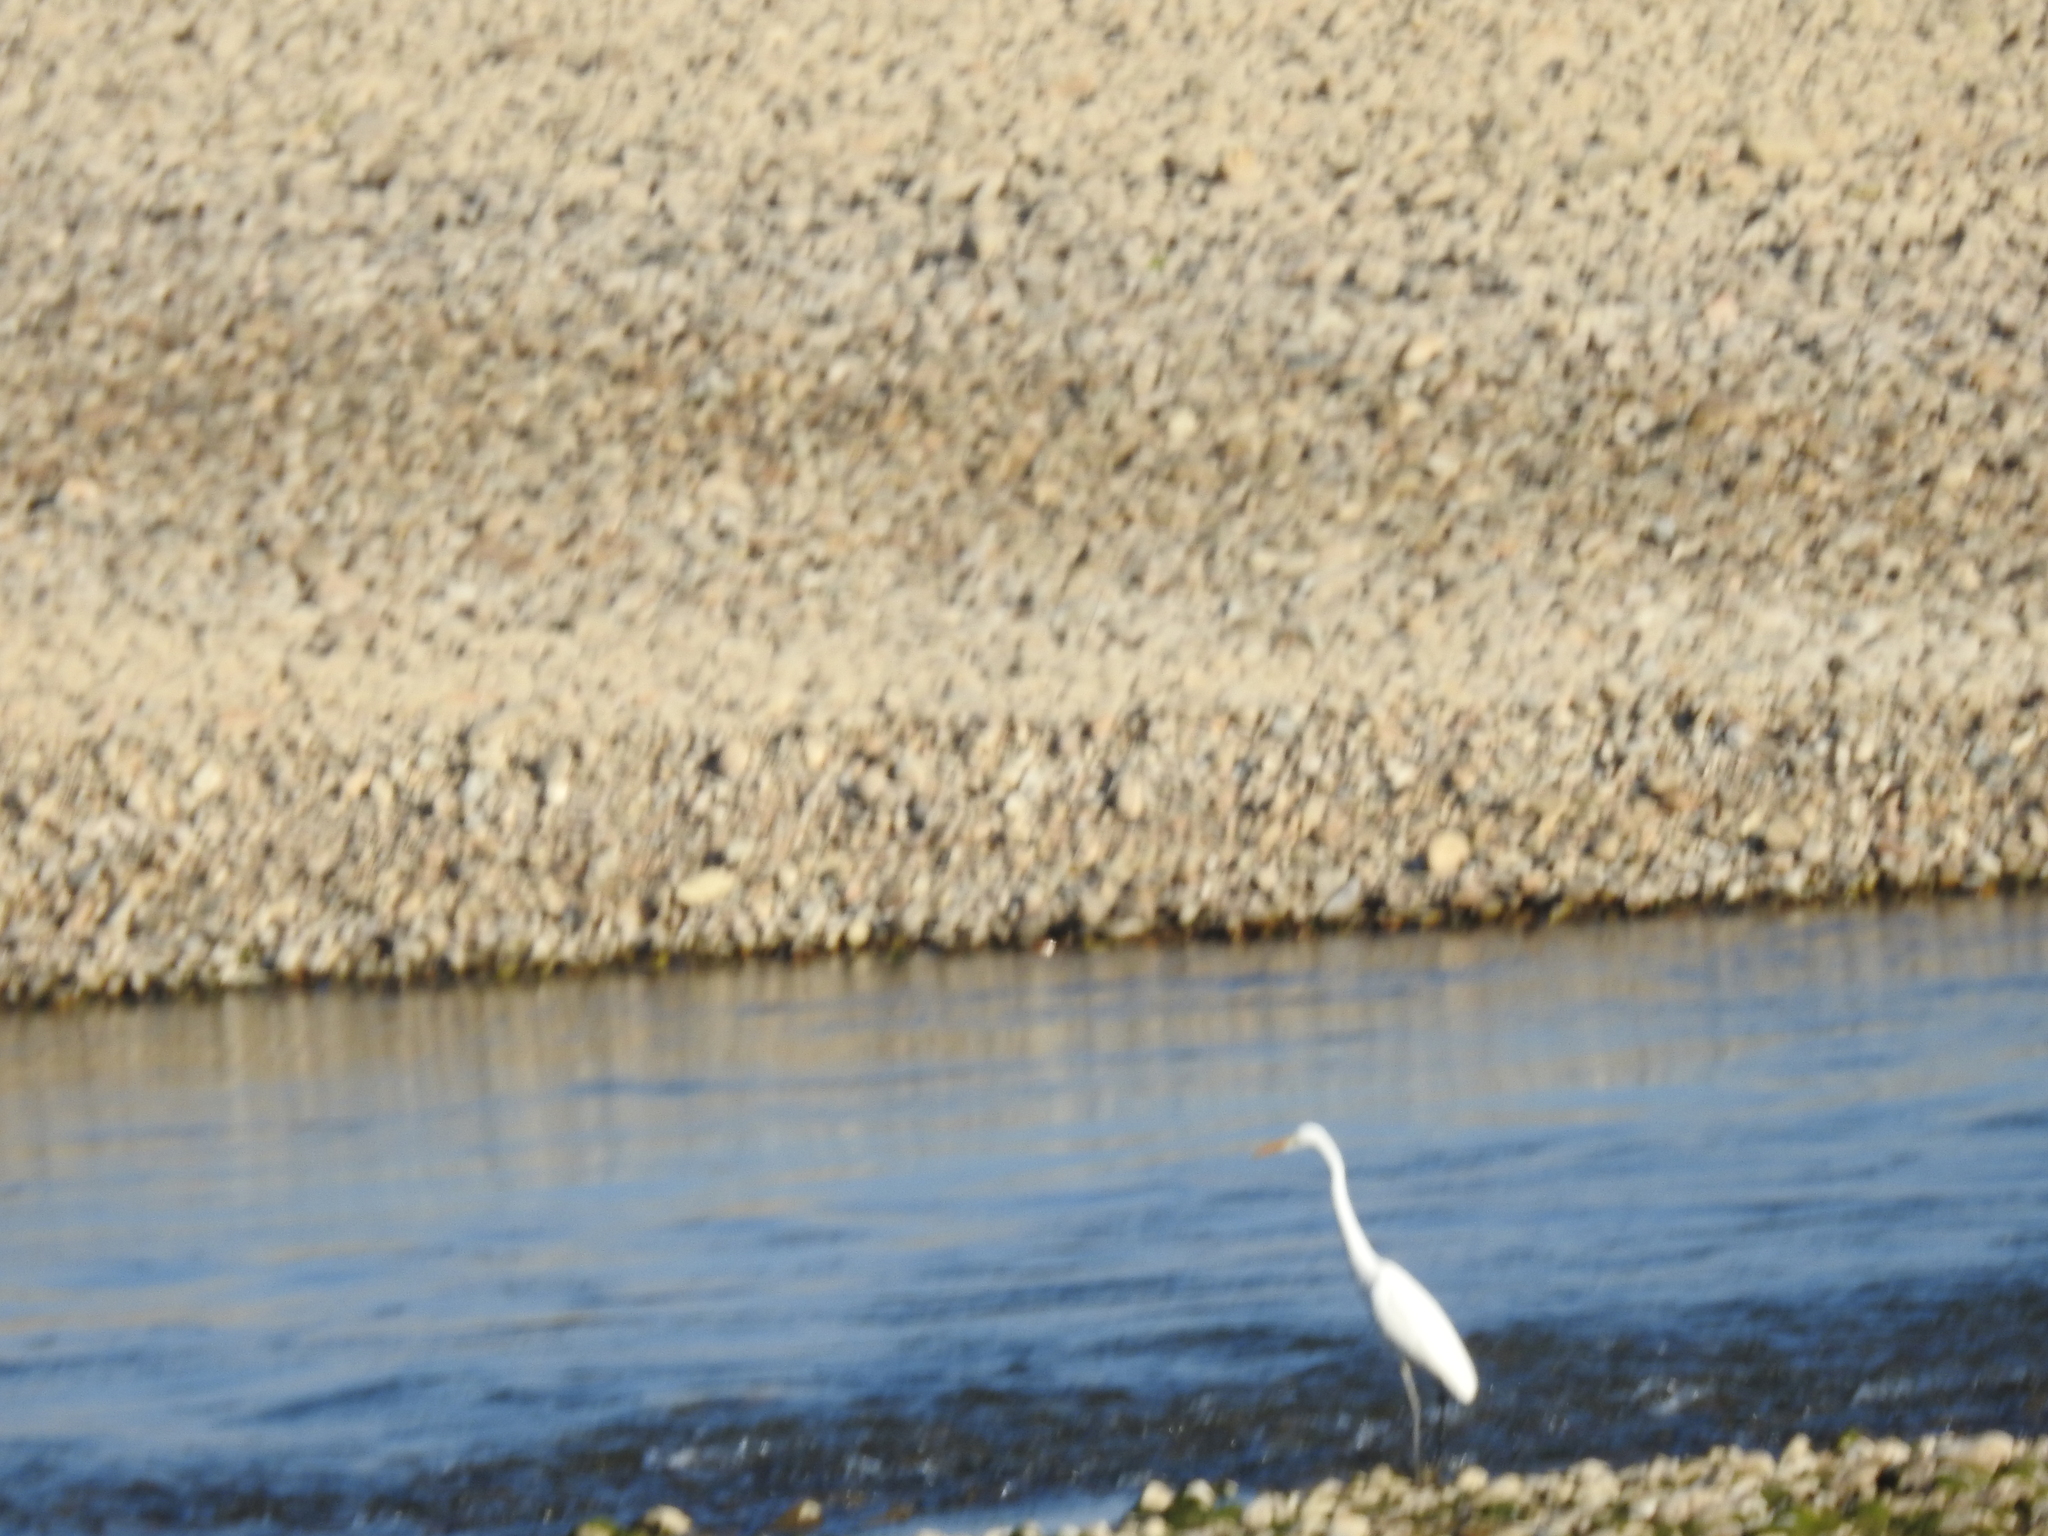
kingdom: Animalia
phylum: Chordata
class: Aves
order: Pelecaniformes
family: Ardeidae
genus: Ardea
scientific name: Ardea alba
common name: Great egret
